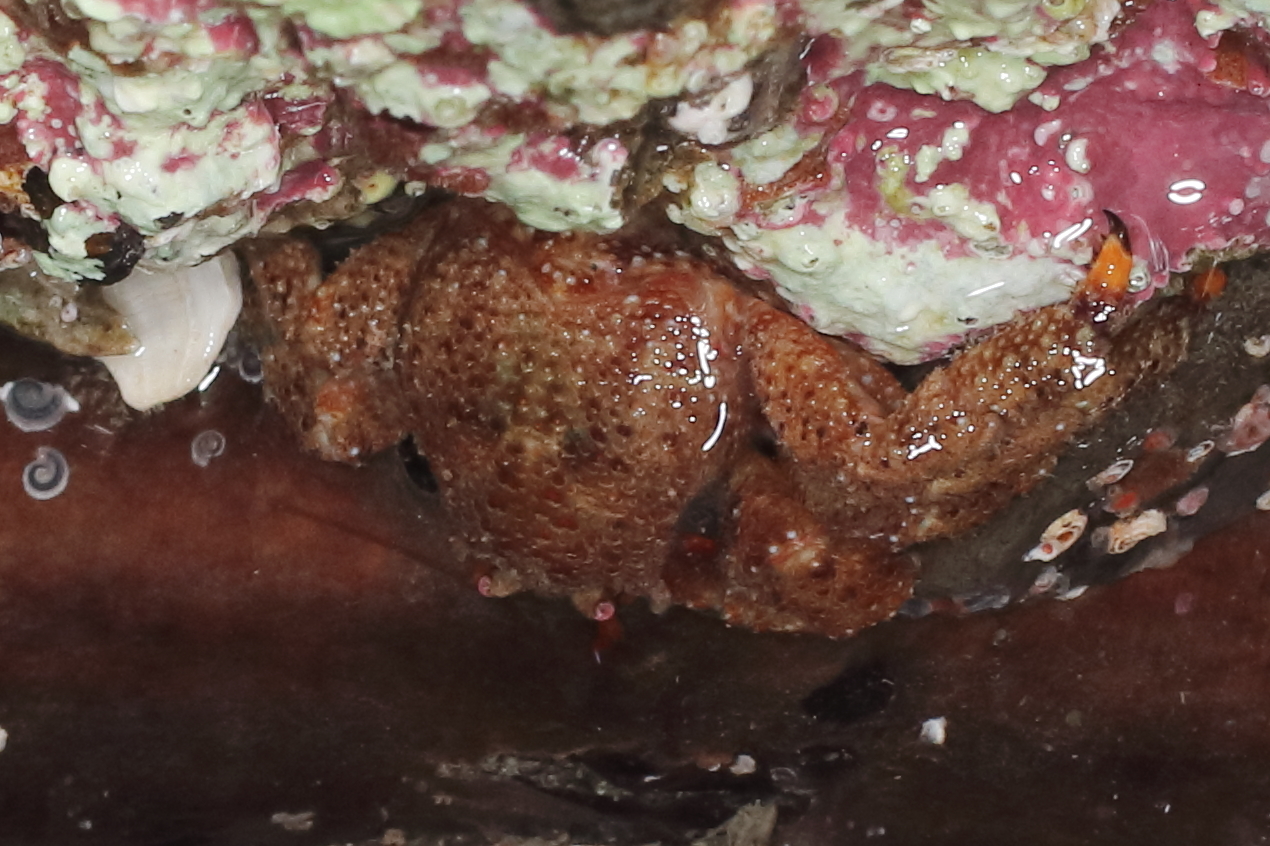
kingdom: Animalia
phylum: Arthropoda
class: Malacostraca
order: Decapoda
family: Hapalogastridae
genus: Oedignathus
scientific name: Oedignathus inermis
